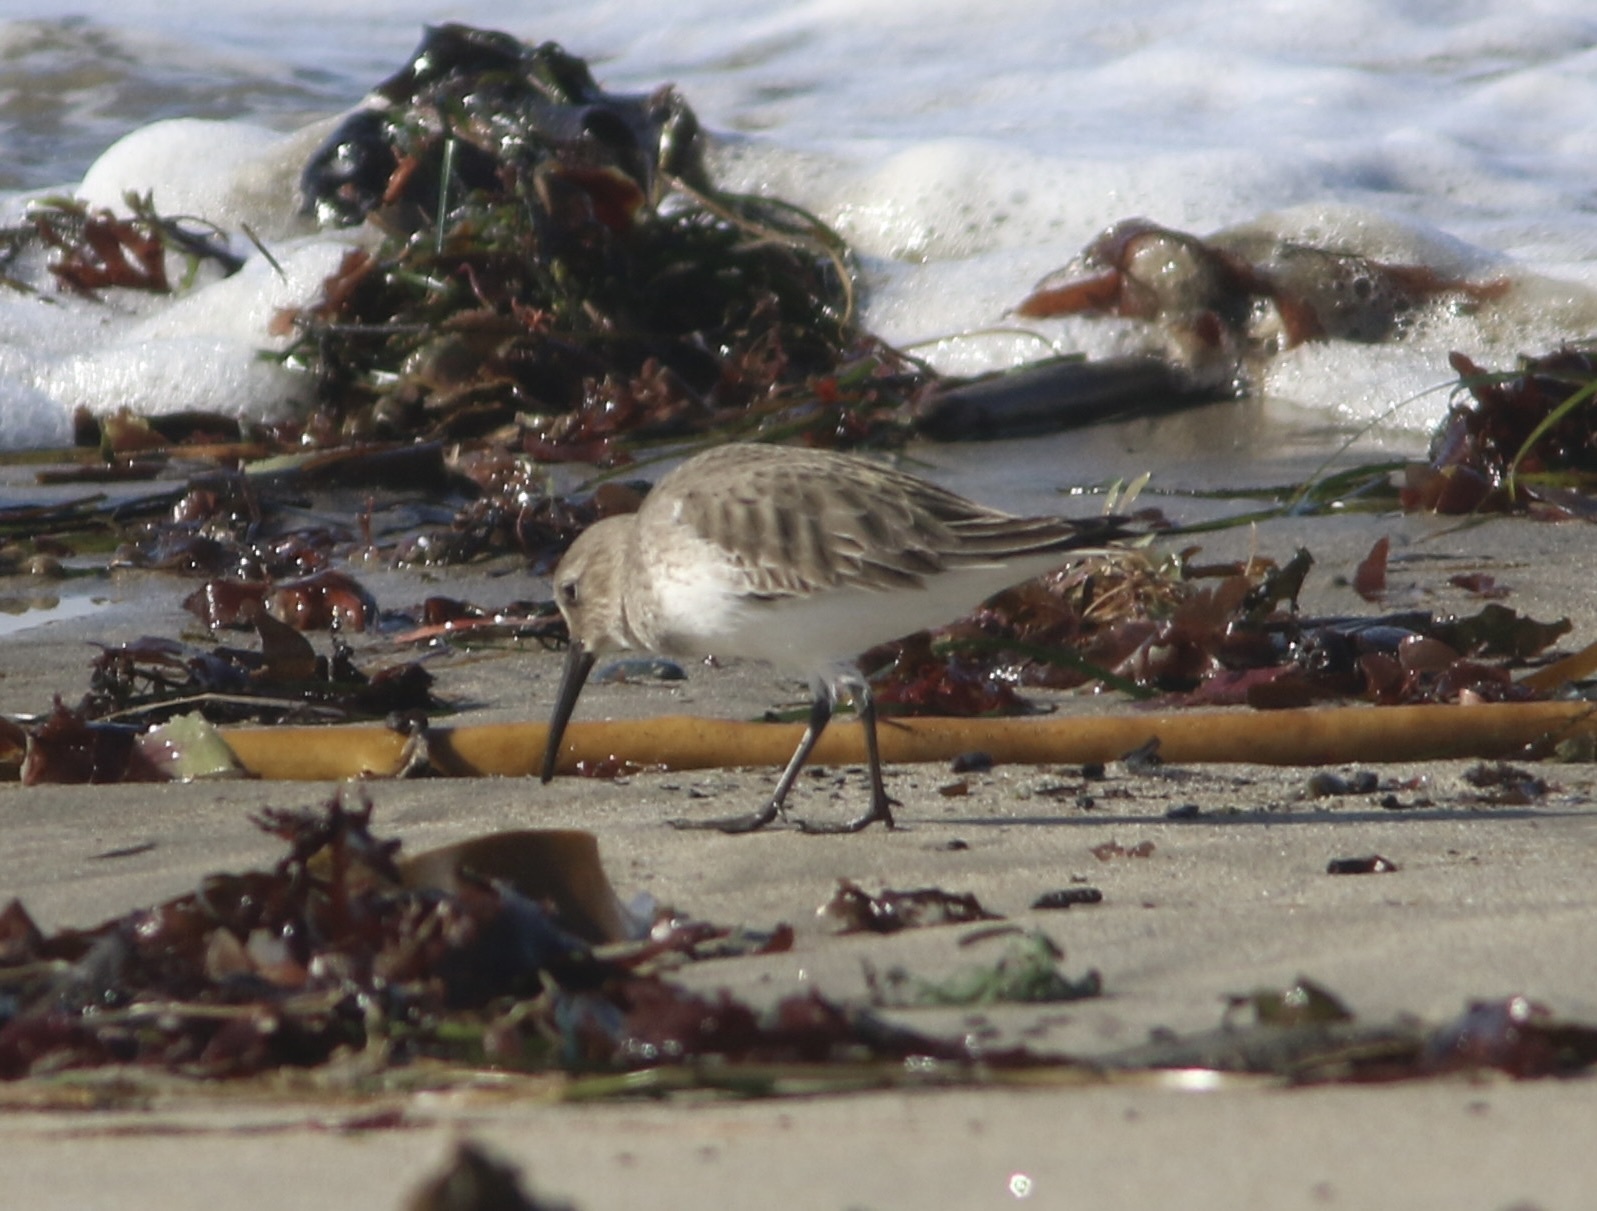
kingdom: Animalia
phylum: Chordata
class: Aves
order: Charadriiformes
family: Scolopacidae
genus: Calidris
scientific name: Calidris alpina
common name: Dunlin
